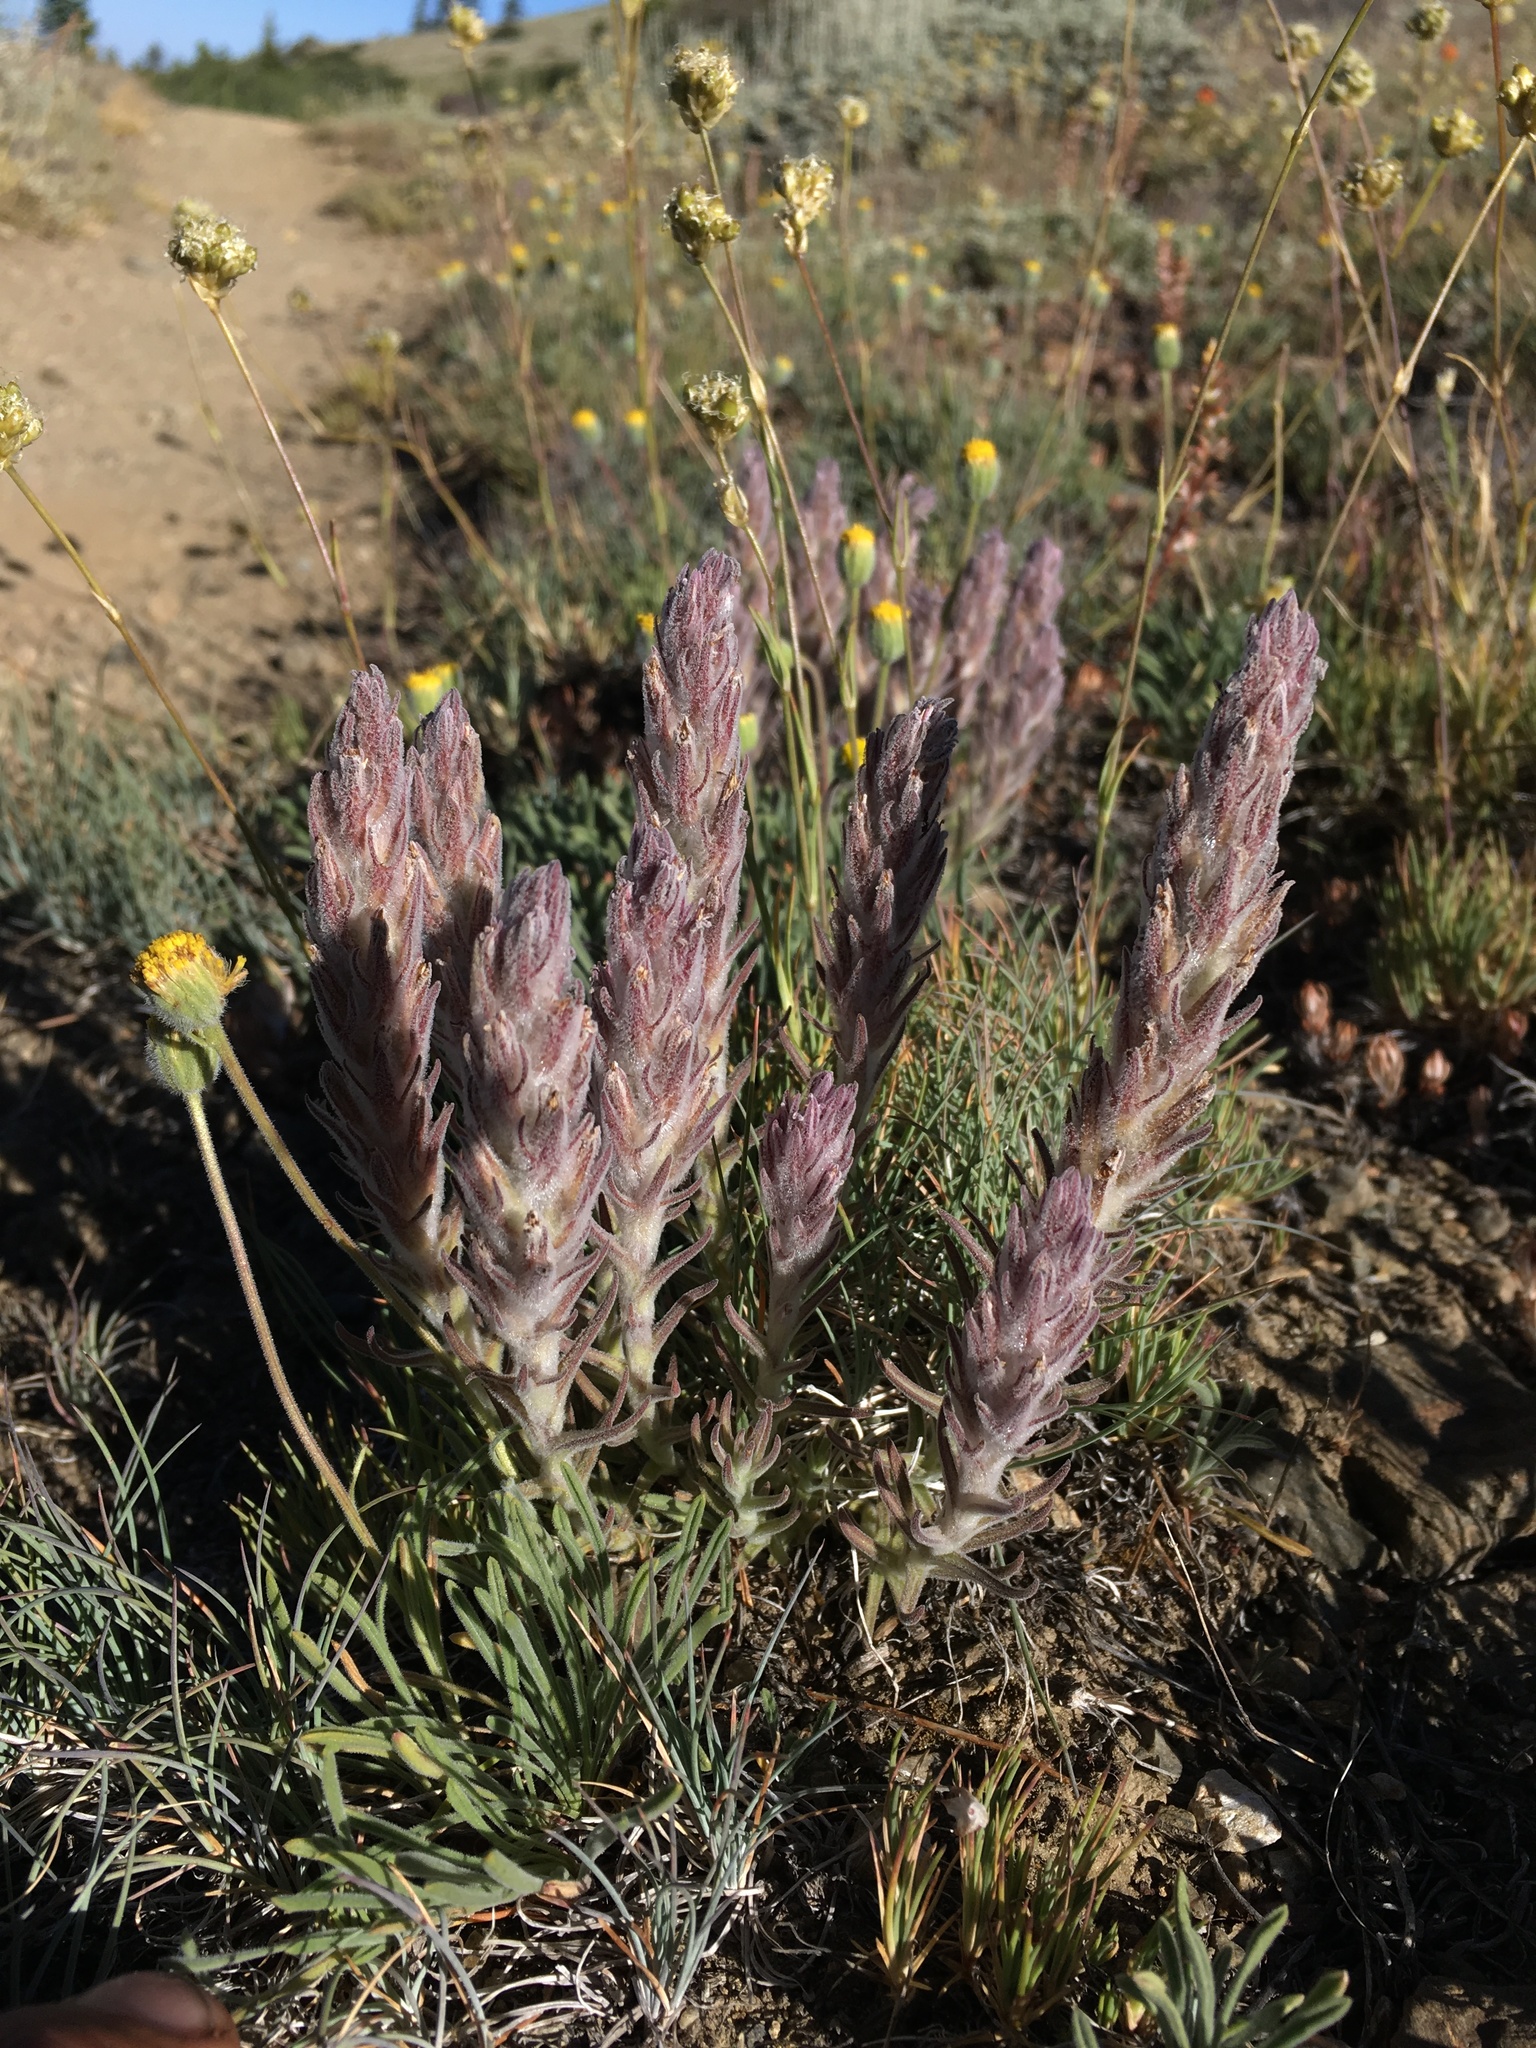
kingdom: Plantae
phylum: Tracheophyta
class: Magnoliopsida
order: Lamiales
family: Orobanchaceae
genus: Castilleja
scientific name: Castilleja schizotricha
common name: Split-hair indian paintbrush
